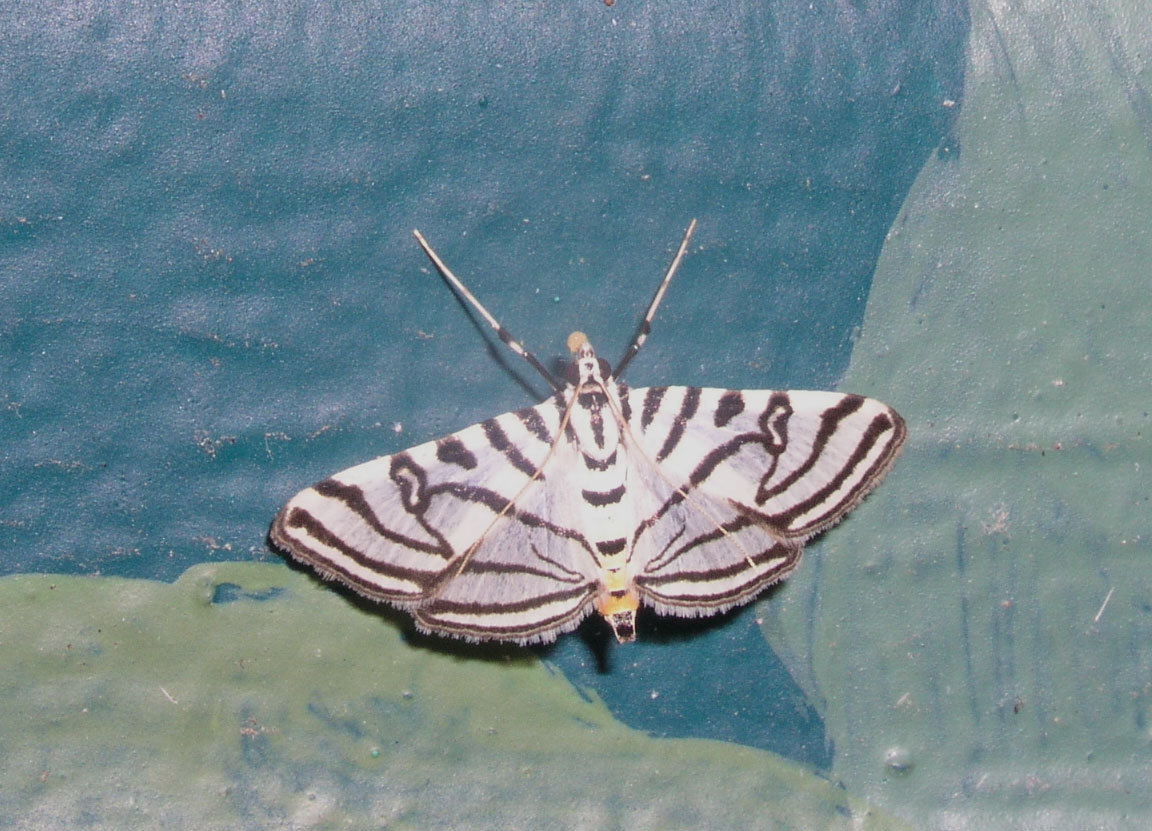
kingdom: Animalia
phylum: Arthropoda
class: Insecta
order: Lepidoptera
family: Crambidae
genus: Conchylodes
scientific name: Conchylodes ovulalis
